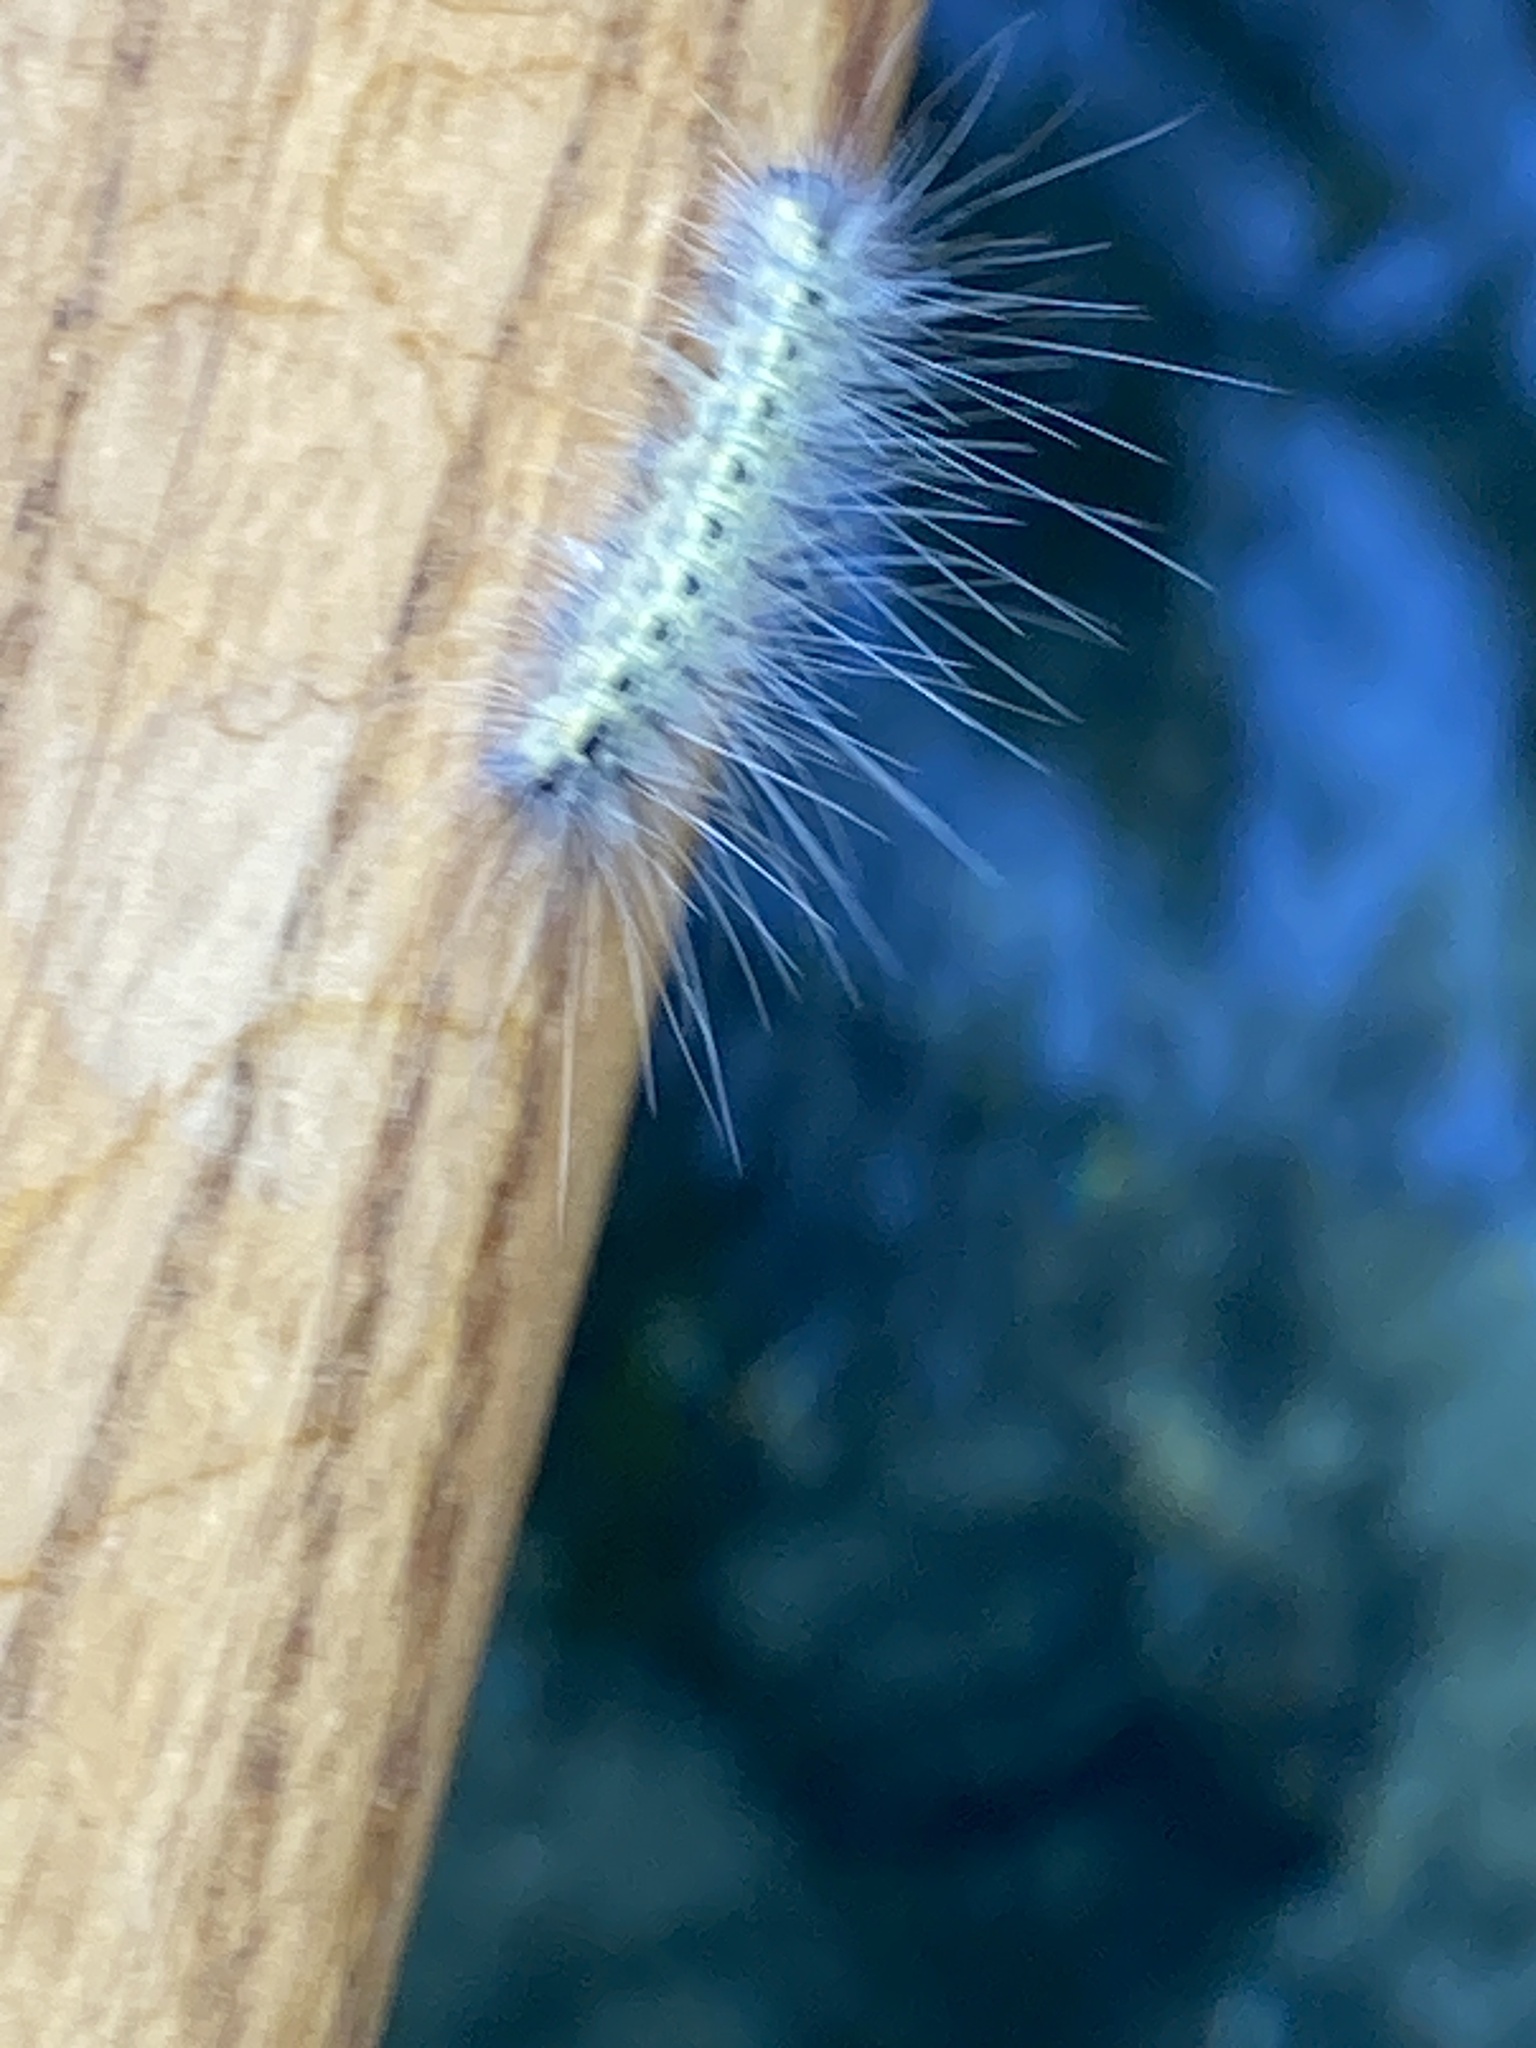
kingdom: Animalia
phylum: Arthropoda
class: Insecta
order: Lepidoptera
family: Erebidae
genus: Hyphantria
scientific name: Hyphantria cunea
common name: American white moth
